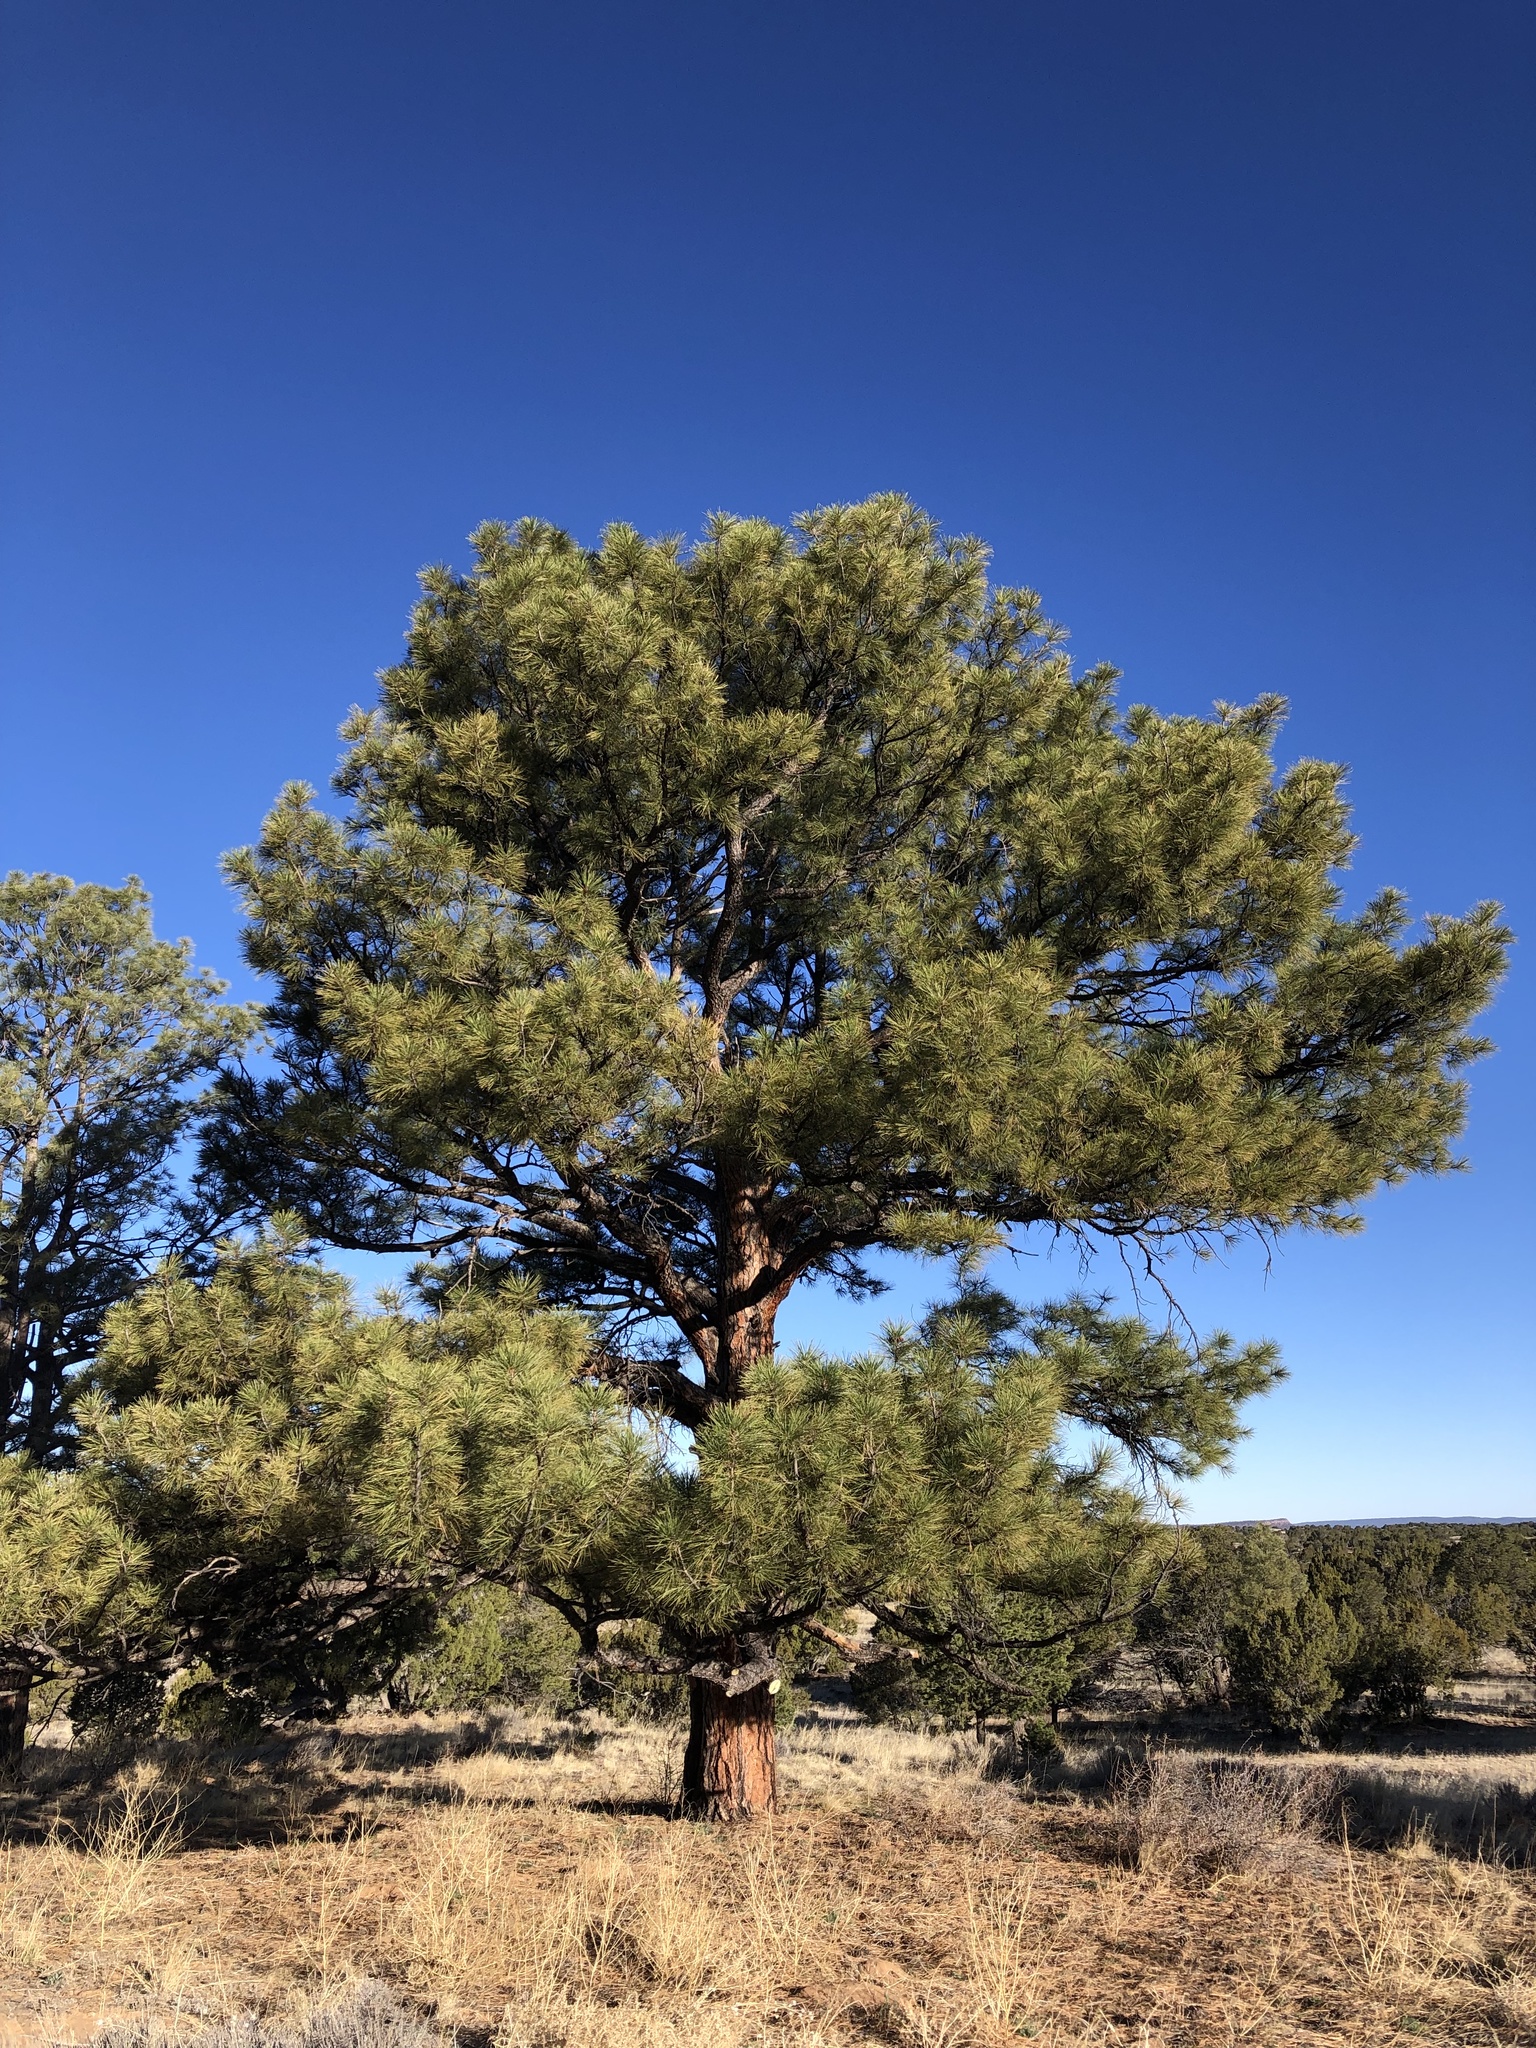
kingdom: Plantae
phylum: Tracheophyta
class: Pinopsida
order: Pinales
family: Pinaceae
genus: Pinus
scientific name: Pinus ponderosa
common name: Western yellow-pine
